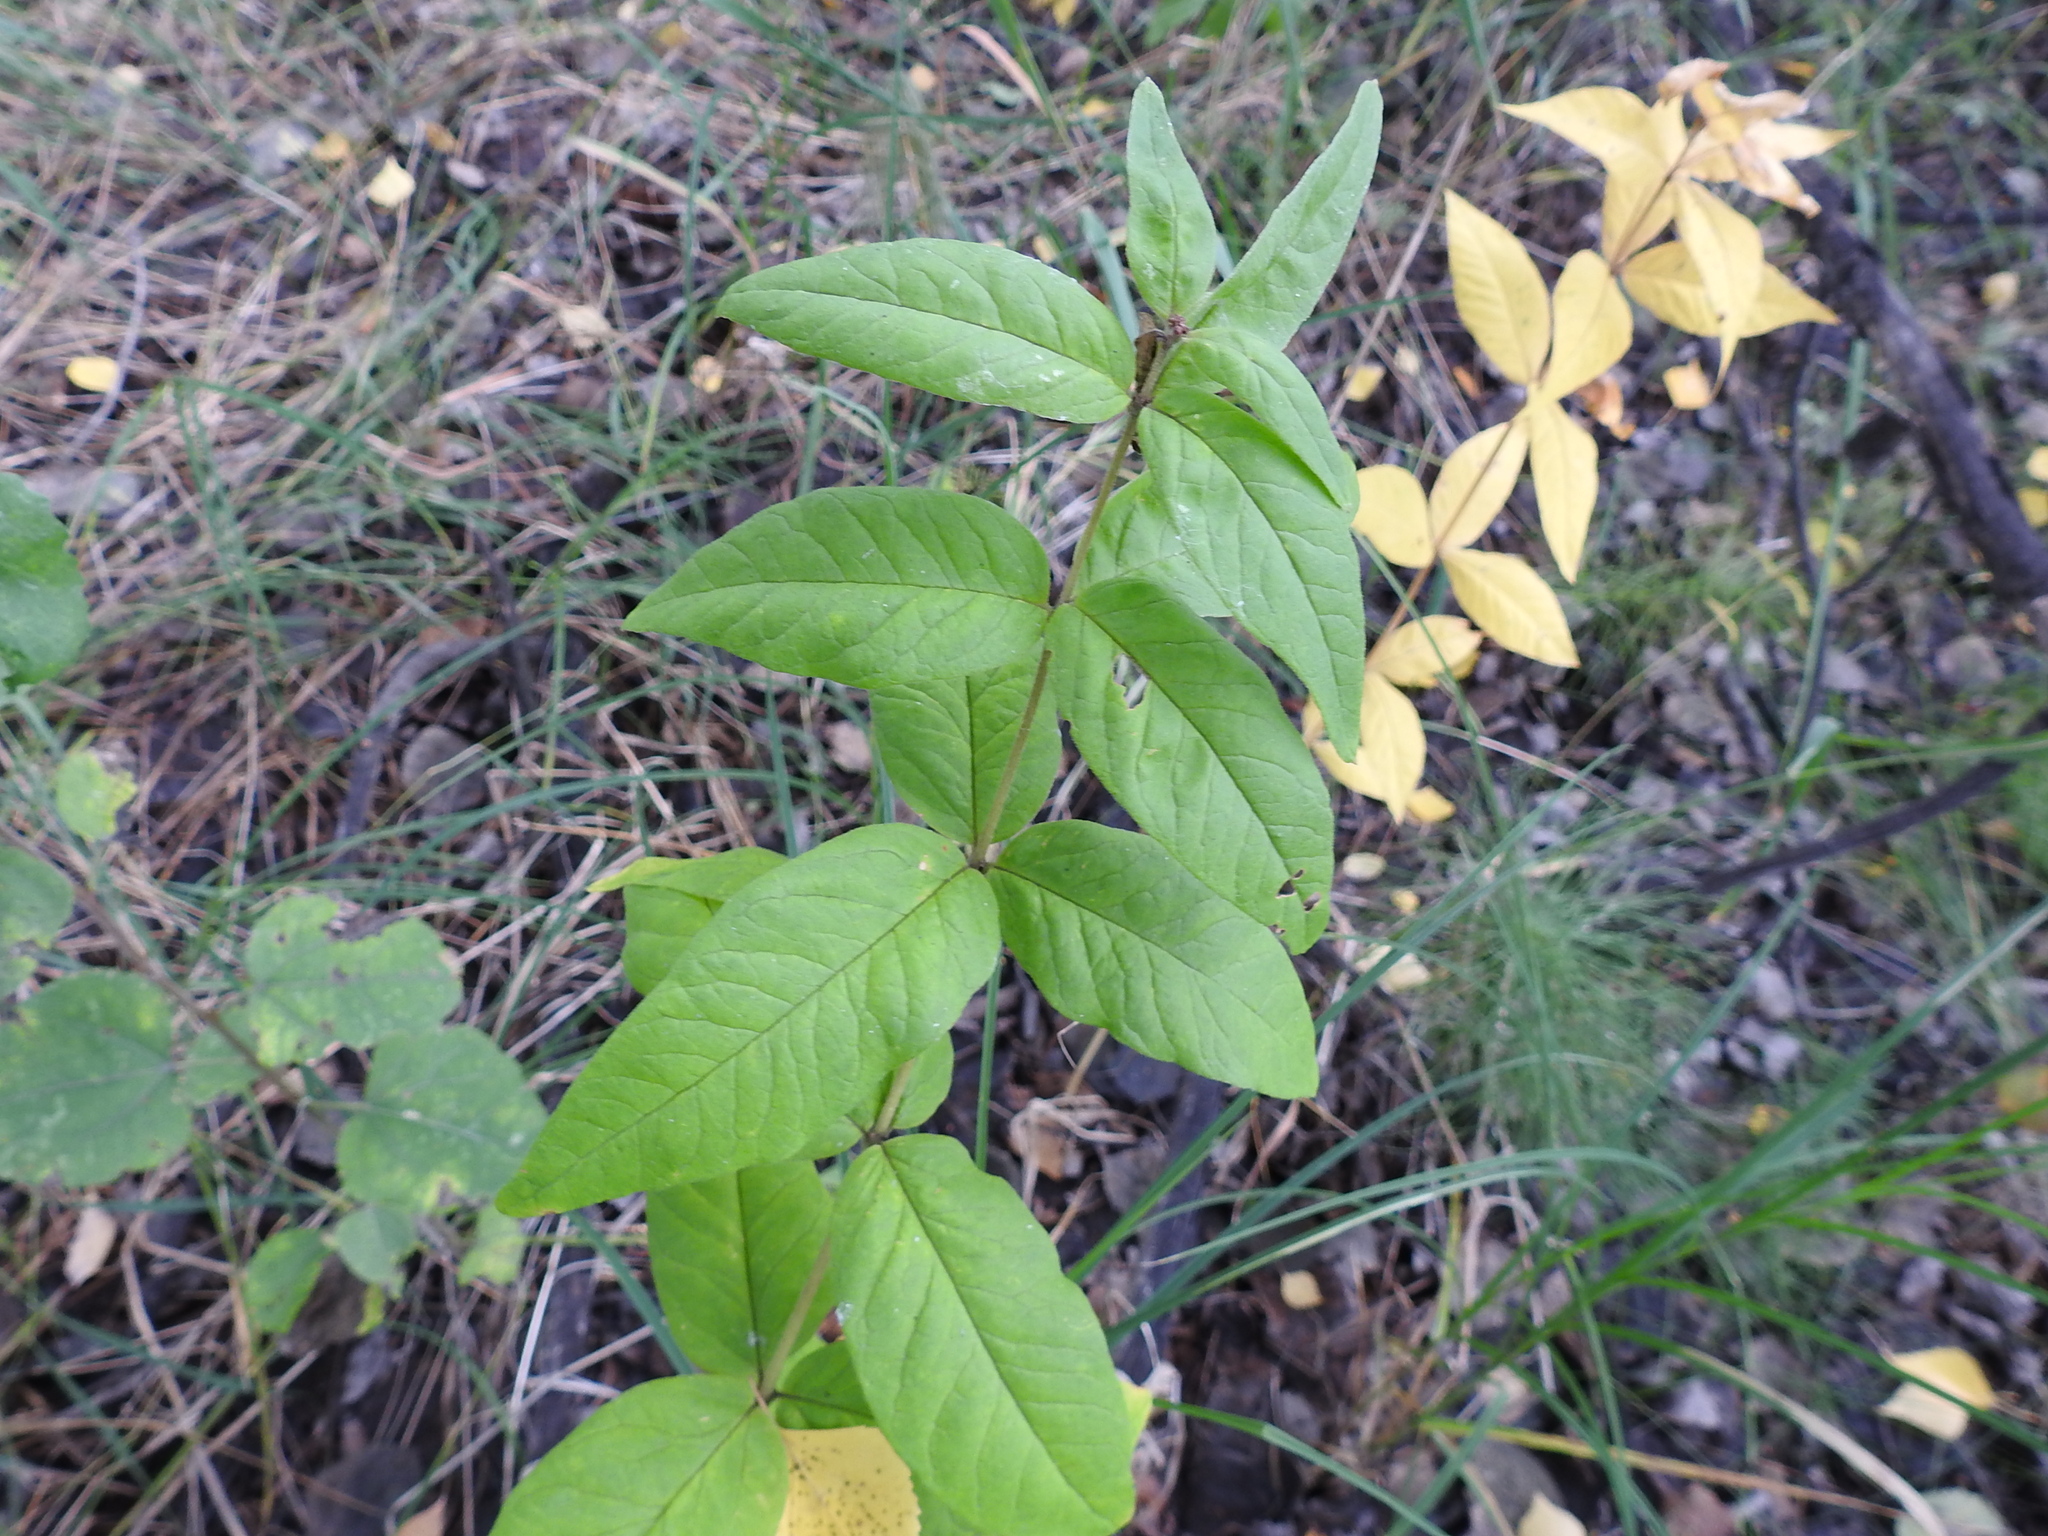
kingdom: Plantae
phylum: Tracheophyta
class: Magnoliopsida
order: Ericales
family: Primulaceae
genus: Lysimachia
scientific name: Lysimachia vulgaris
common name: Yellow loosestrife
